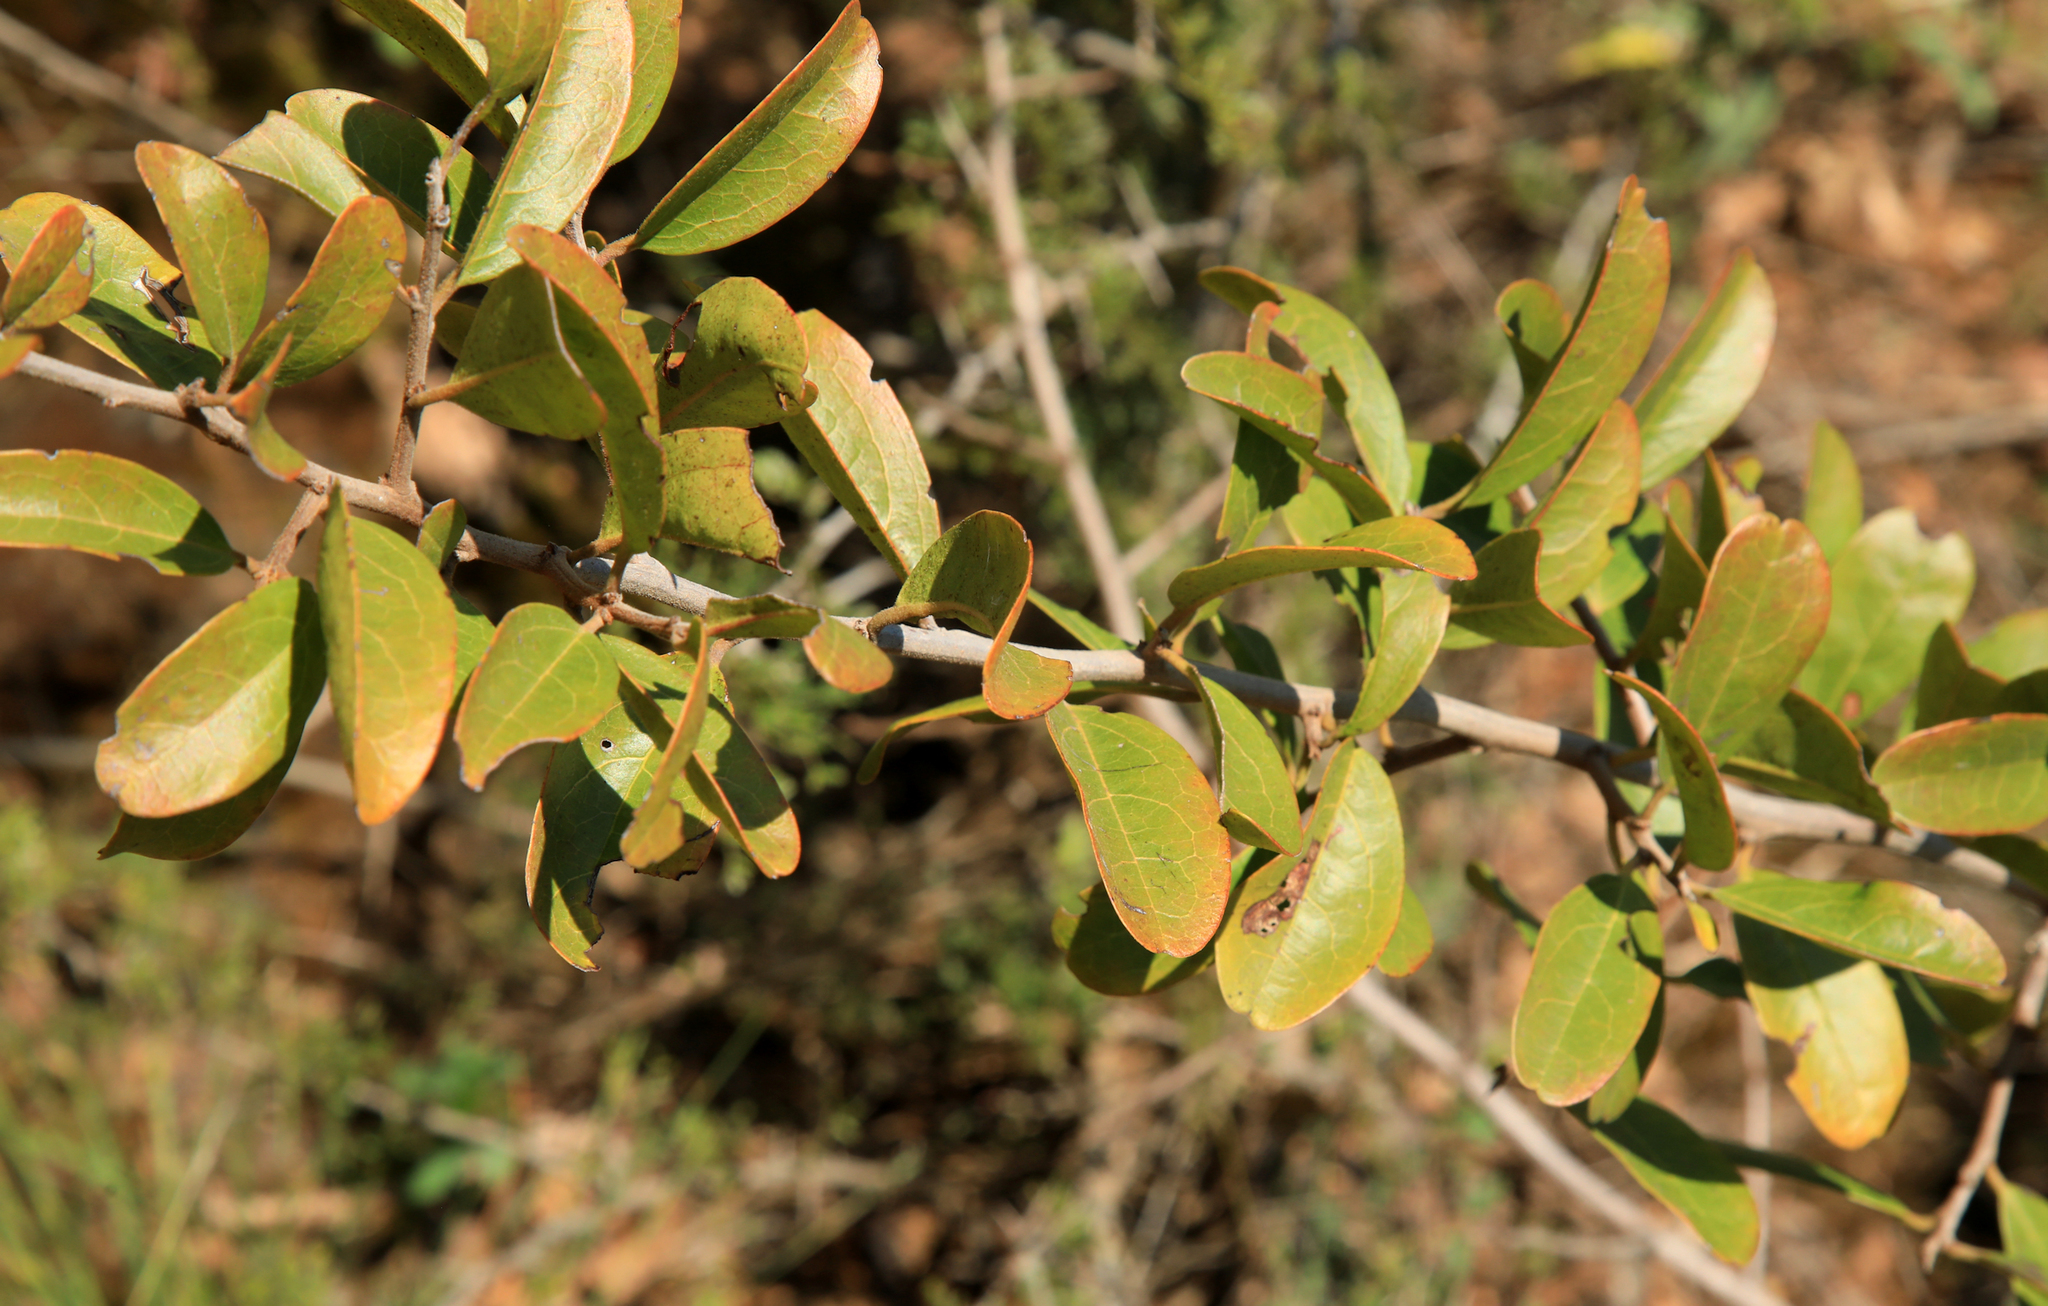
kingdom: Plantae
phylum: Tracheophyta
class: Magnoliopsida
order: Santalales
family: Ximeniaceae
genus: Ximenia
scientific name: Ximenia caffra
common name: Large sourplum
